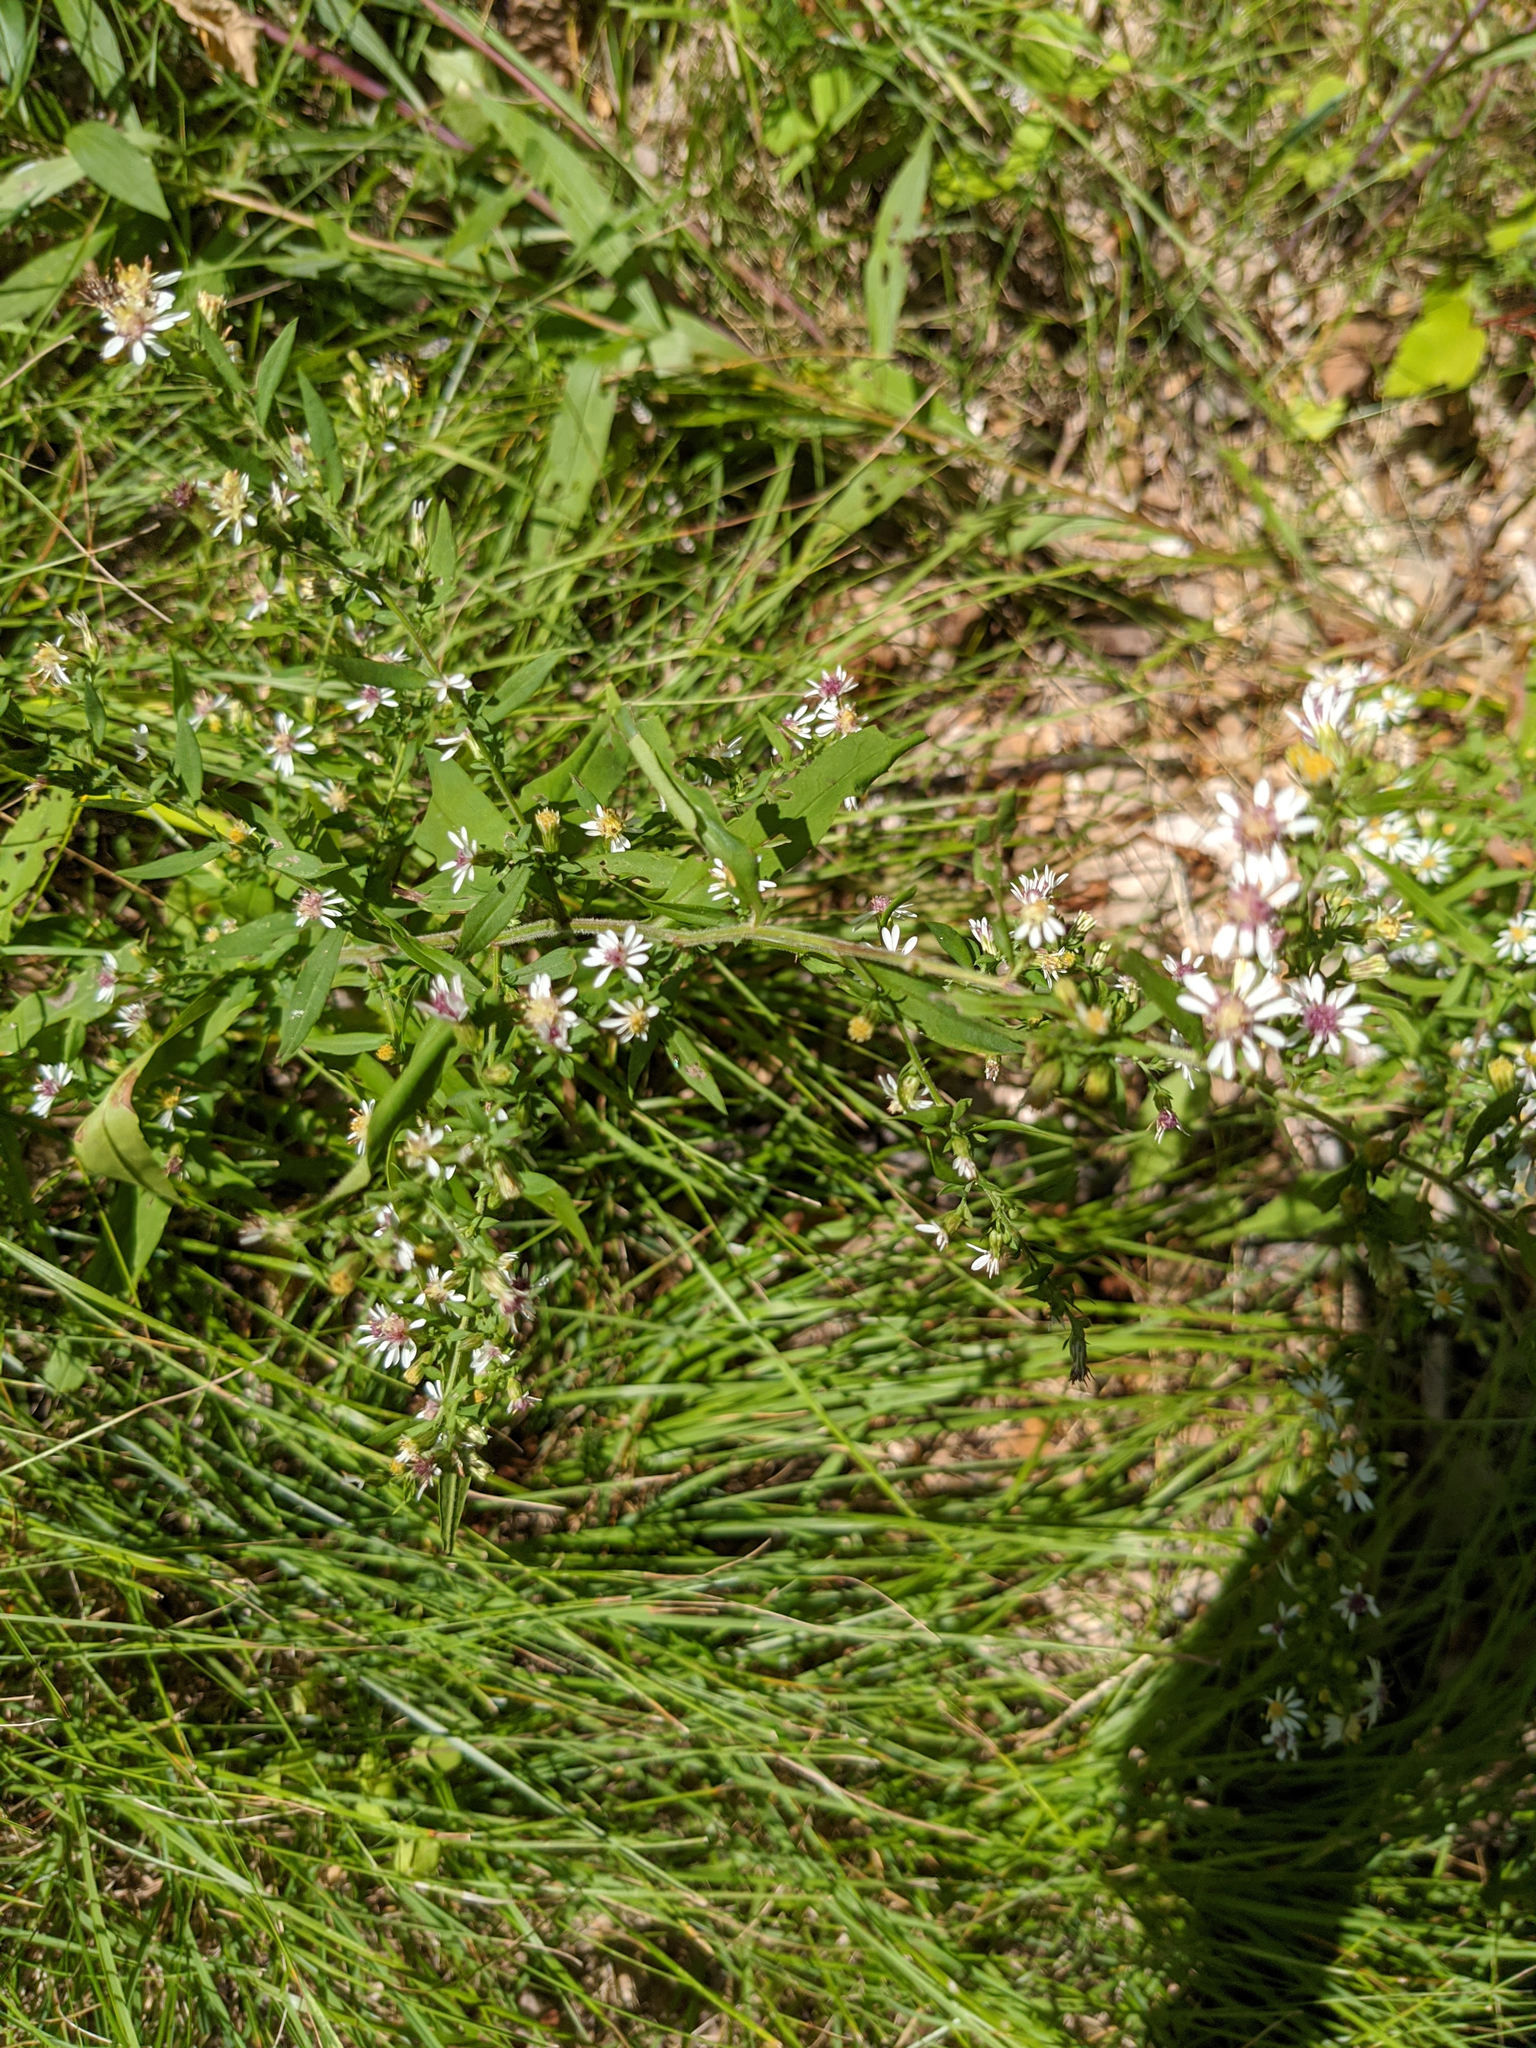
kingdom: Plantae
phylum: Tracheophyta
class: Magnoliopsida
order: Asterales
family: Asteraceae
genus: Symphyotrichum
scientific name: Symphyotrichum lateriflorum
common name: Calico aster
